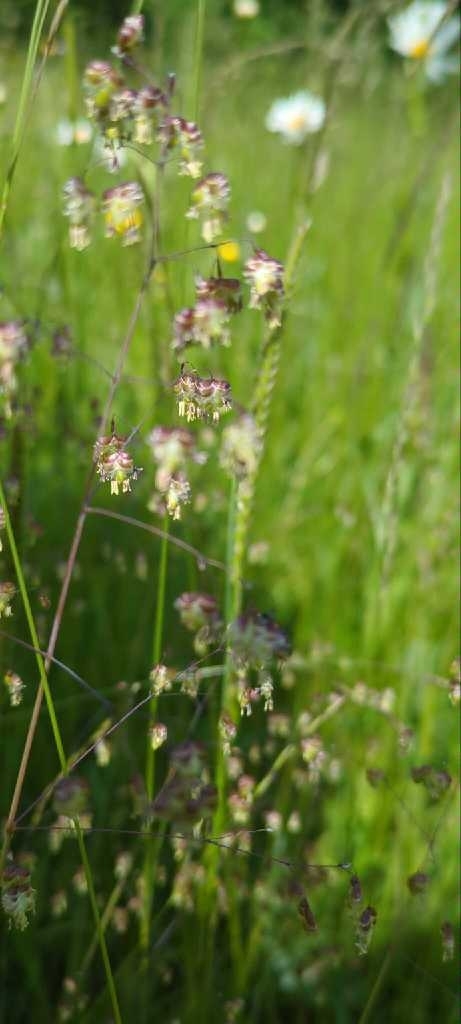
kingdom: Plantae
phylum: Tracheophyta
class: Liliopsida
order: Poales
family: Poaceae
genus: Briza
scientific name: Briza media
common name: Quaking grass
